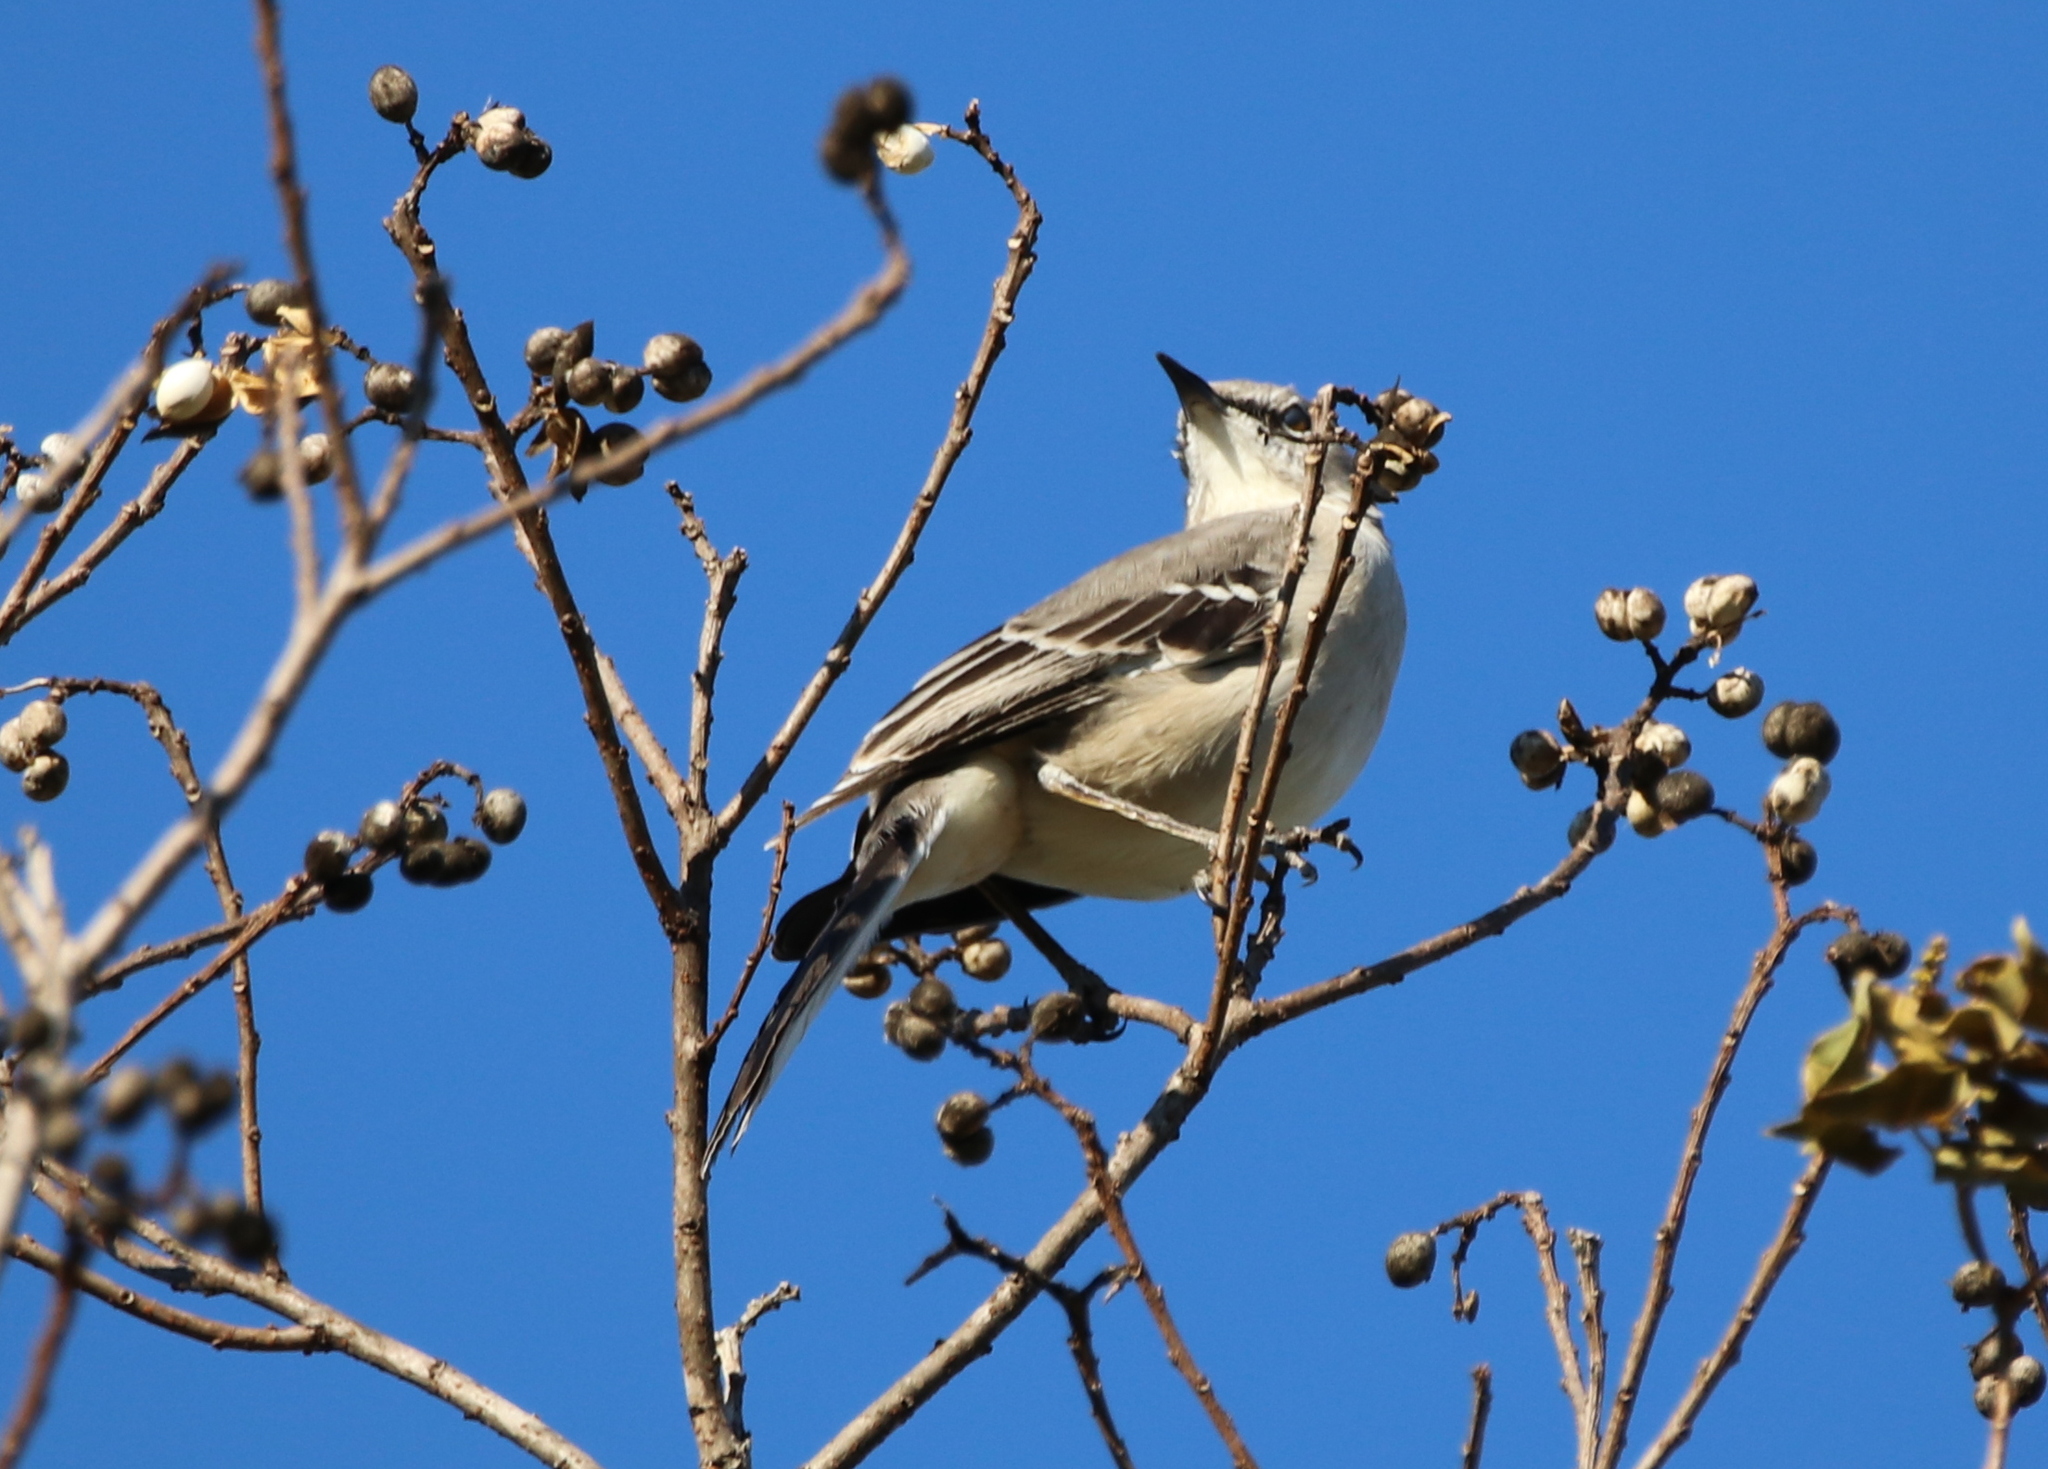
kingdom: Animalia
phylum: Chordata
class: Aves
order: Passeriformes
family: Mimidae
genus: Mimus
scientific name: Mimus polyglottos
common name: Northern mockingbird
